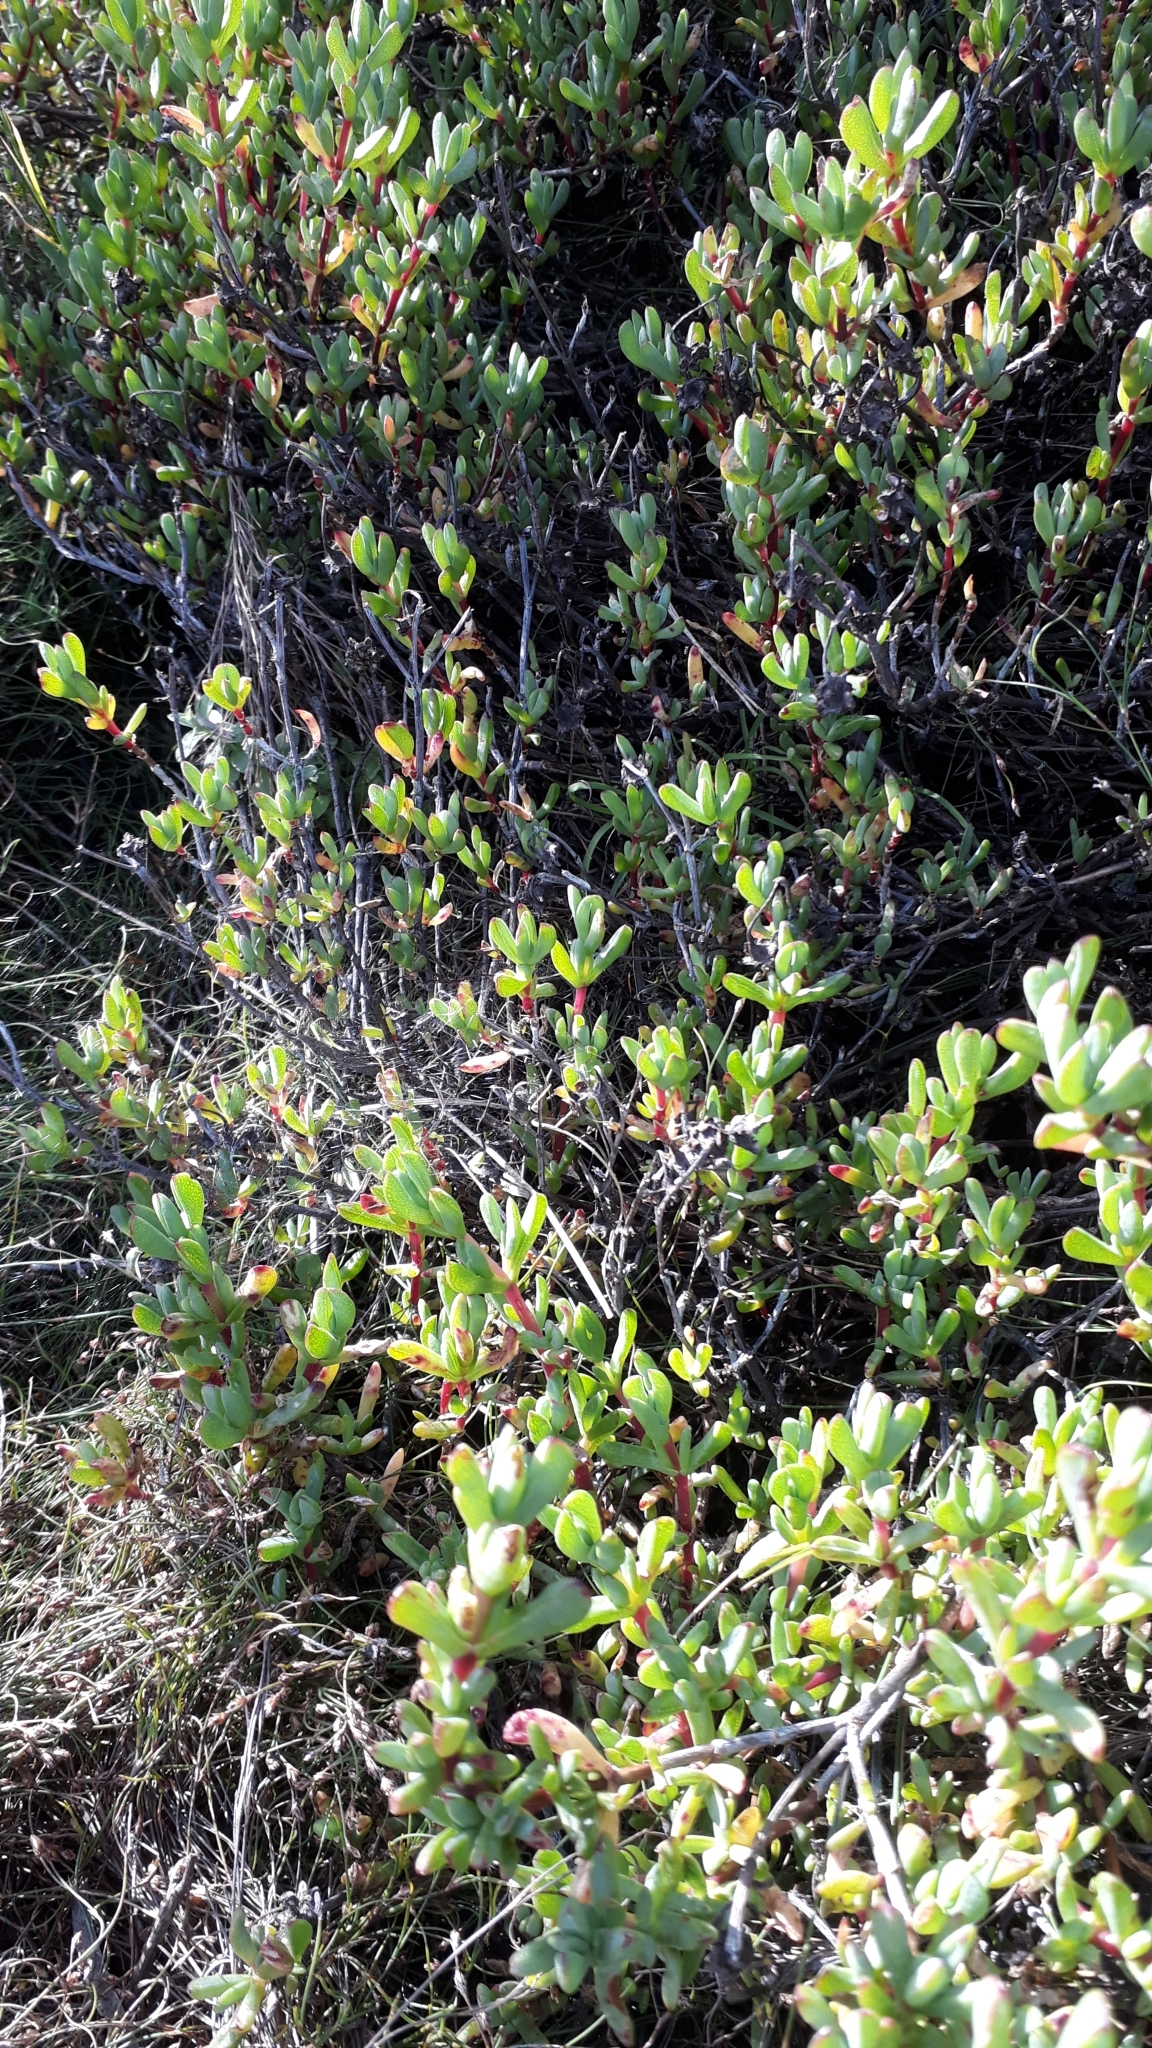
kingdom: Plantae
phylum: Tracheophyta
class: Magnoliopsida
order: Caryophyllales
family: Aizoaceae
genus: Oscularia
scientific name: Oscularia falciformis
